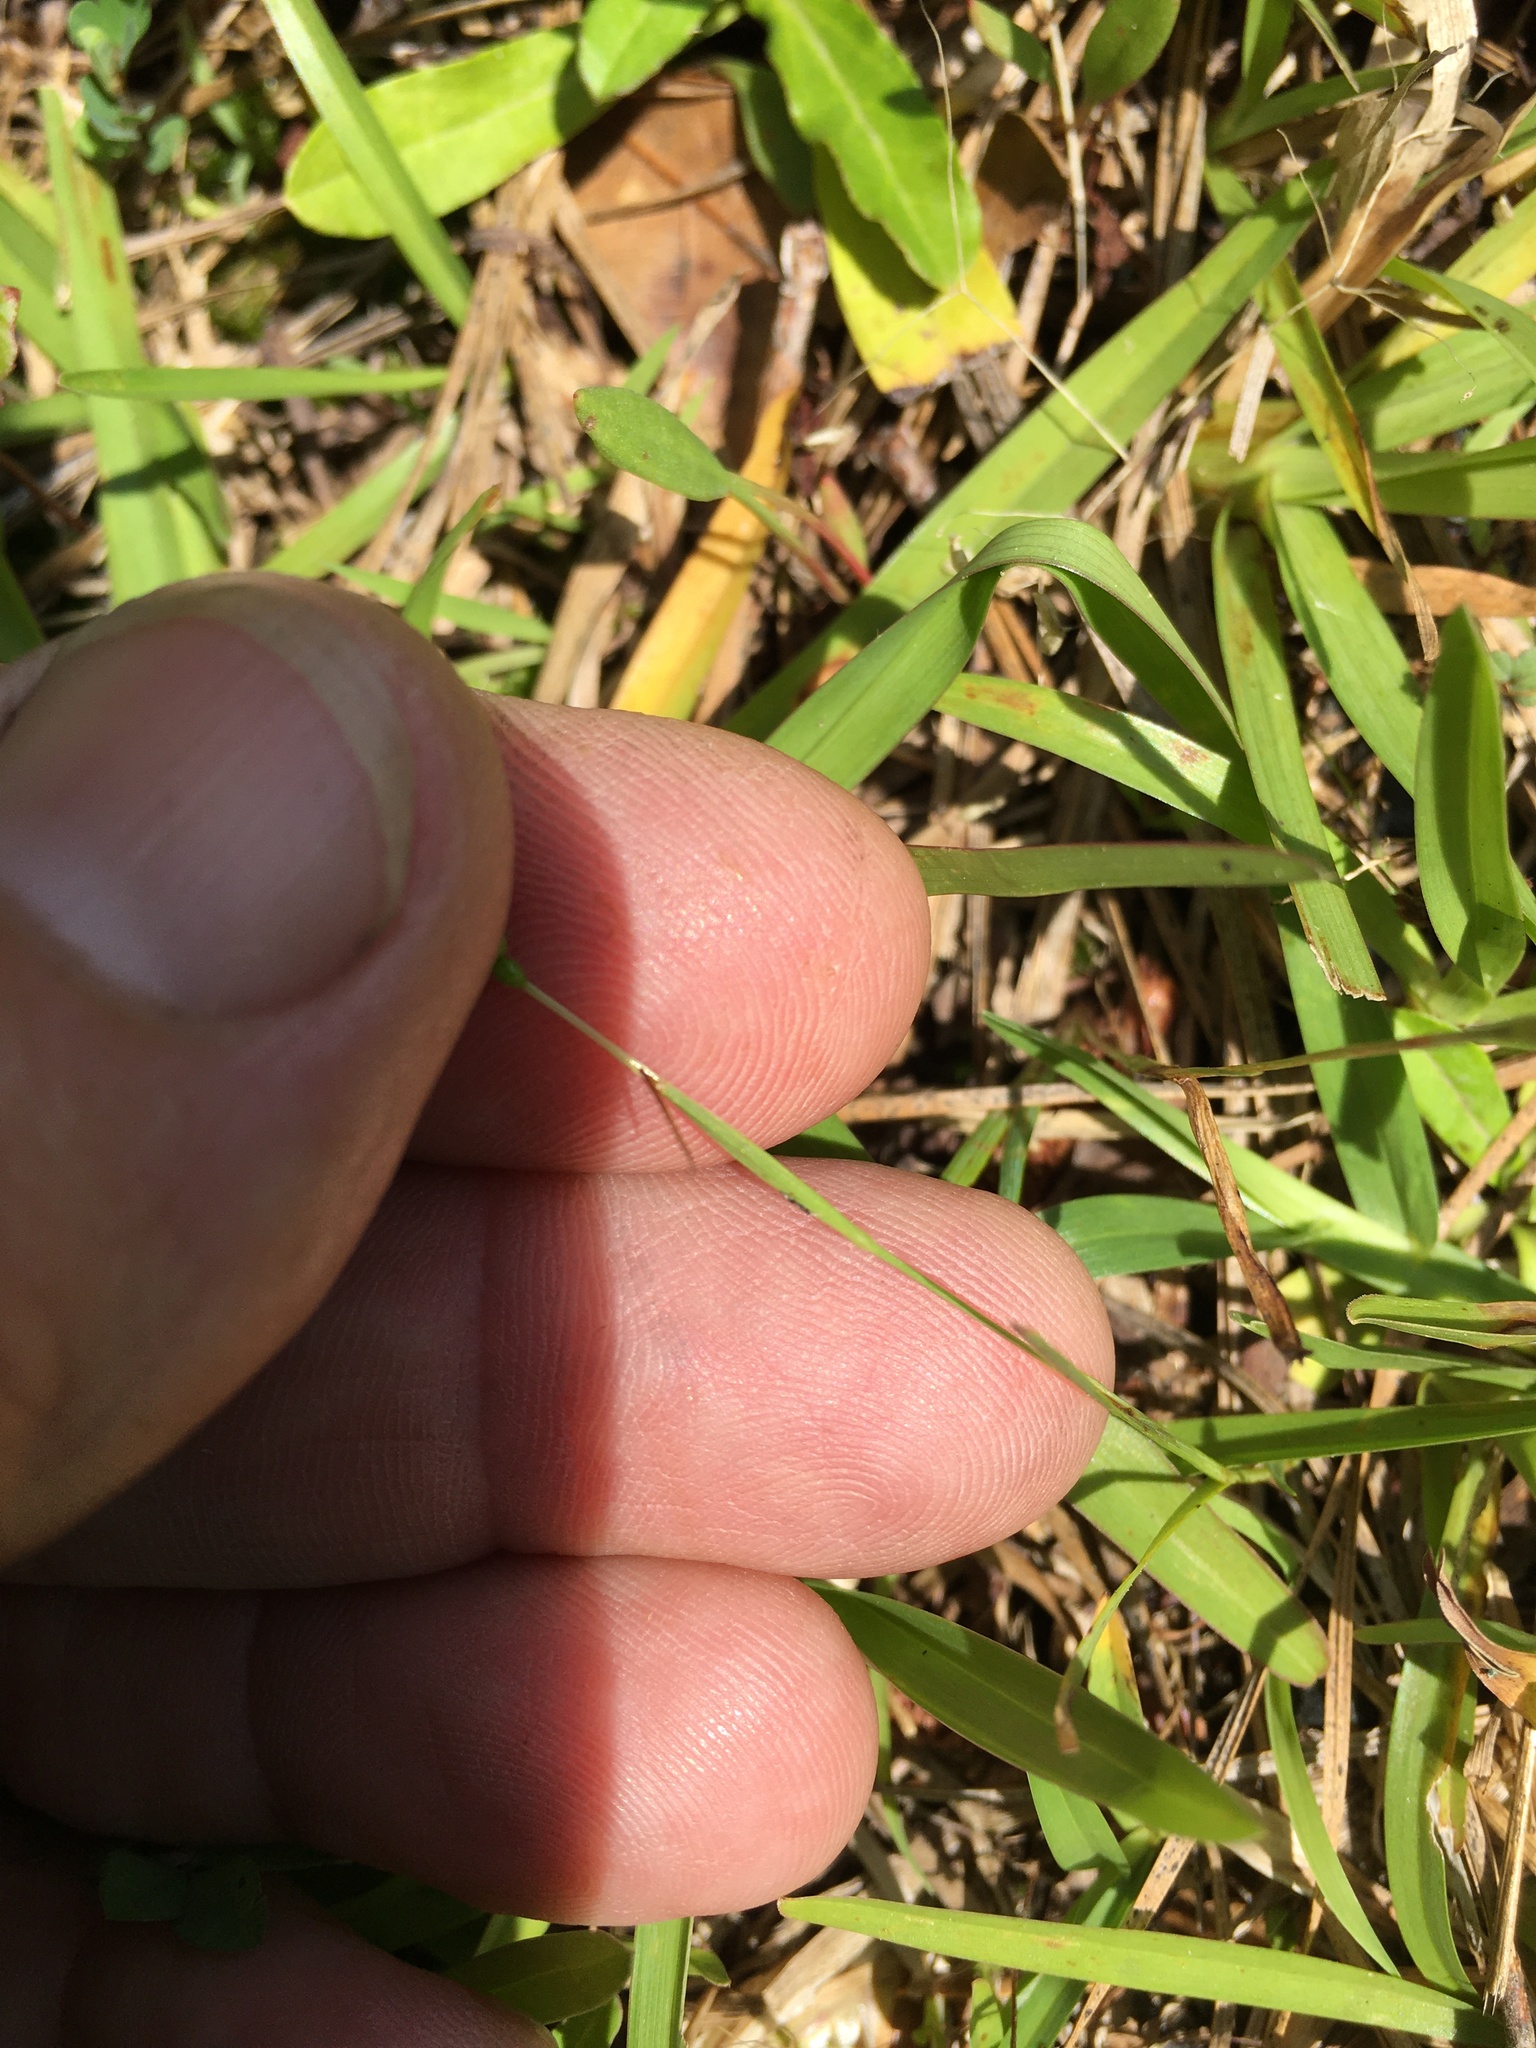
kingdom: Plantae
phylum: Tracheophyta
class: Liliopsida
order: Asparagales
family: Iridaceae
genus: Sisyrinchium
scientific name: Sisyrinchium micranthum
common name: Bermuda pigroot
